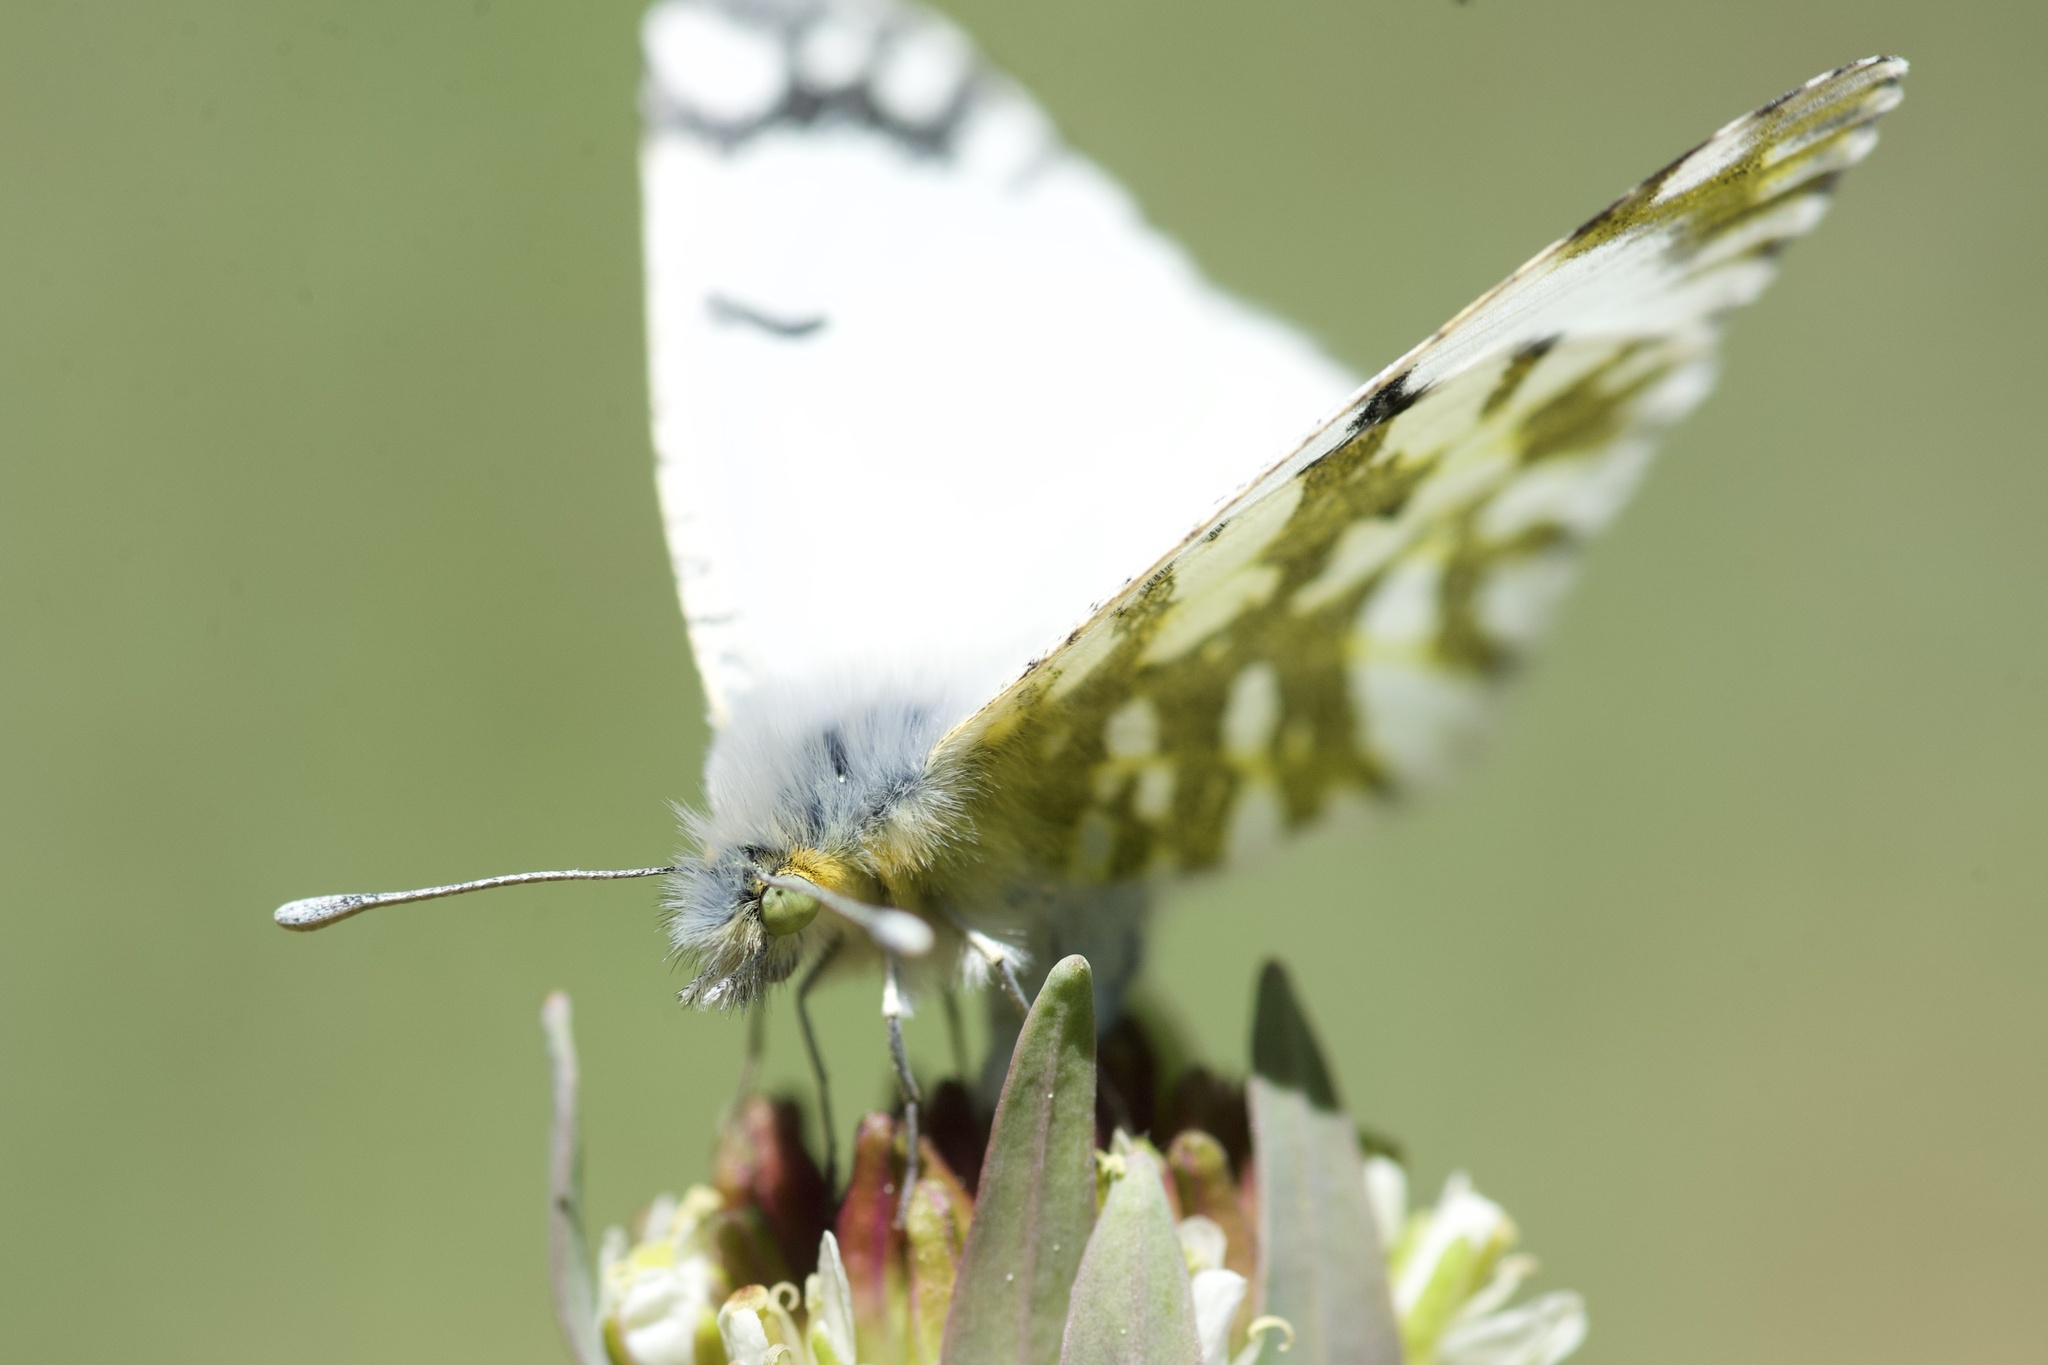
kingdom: Animalia
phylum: Arthropoda
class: Insecta
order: Lepidoptera
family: Pieridae
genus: Euchloe
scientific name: Euchloe ausonides
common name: Creamy marblewing
